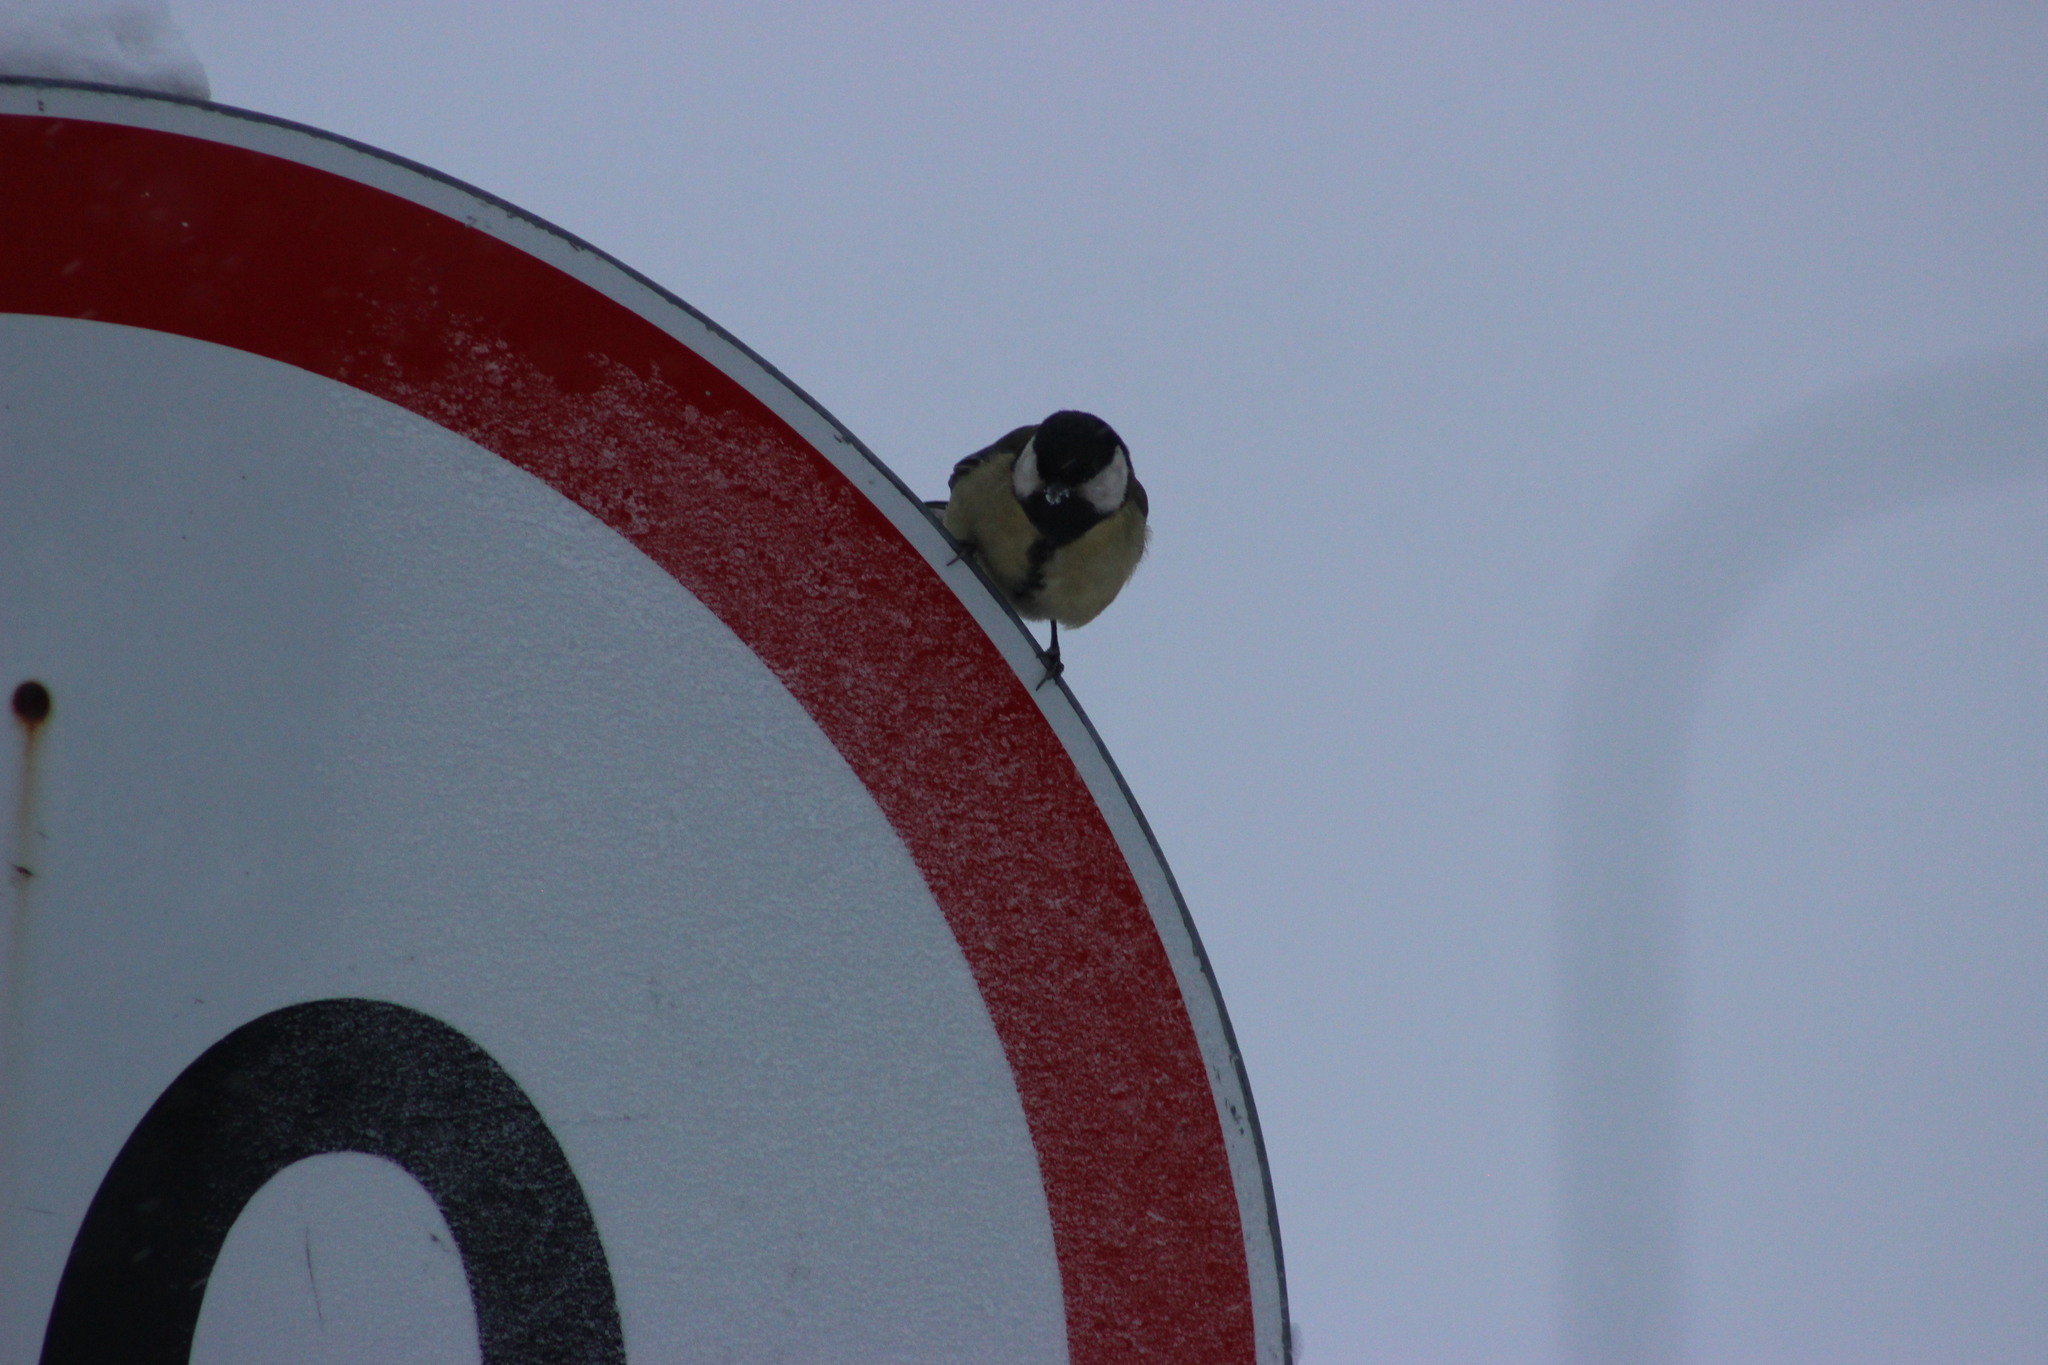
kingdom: Animalia
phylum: Chordata
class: Aves
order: Passeriformes
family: Paridae
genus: Parus
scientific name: Parus major
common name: Great tit
